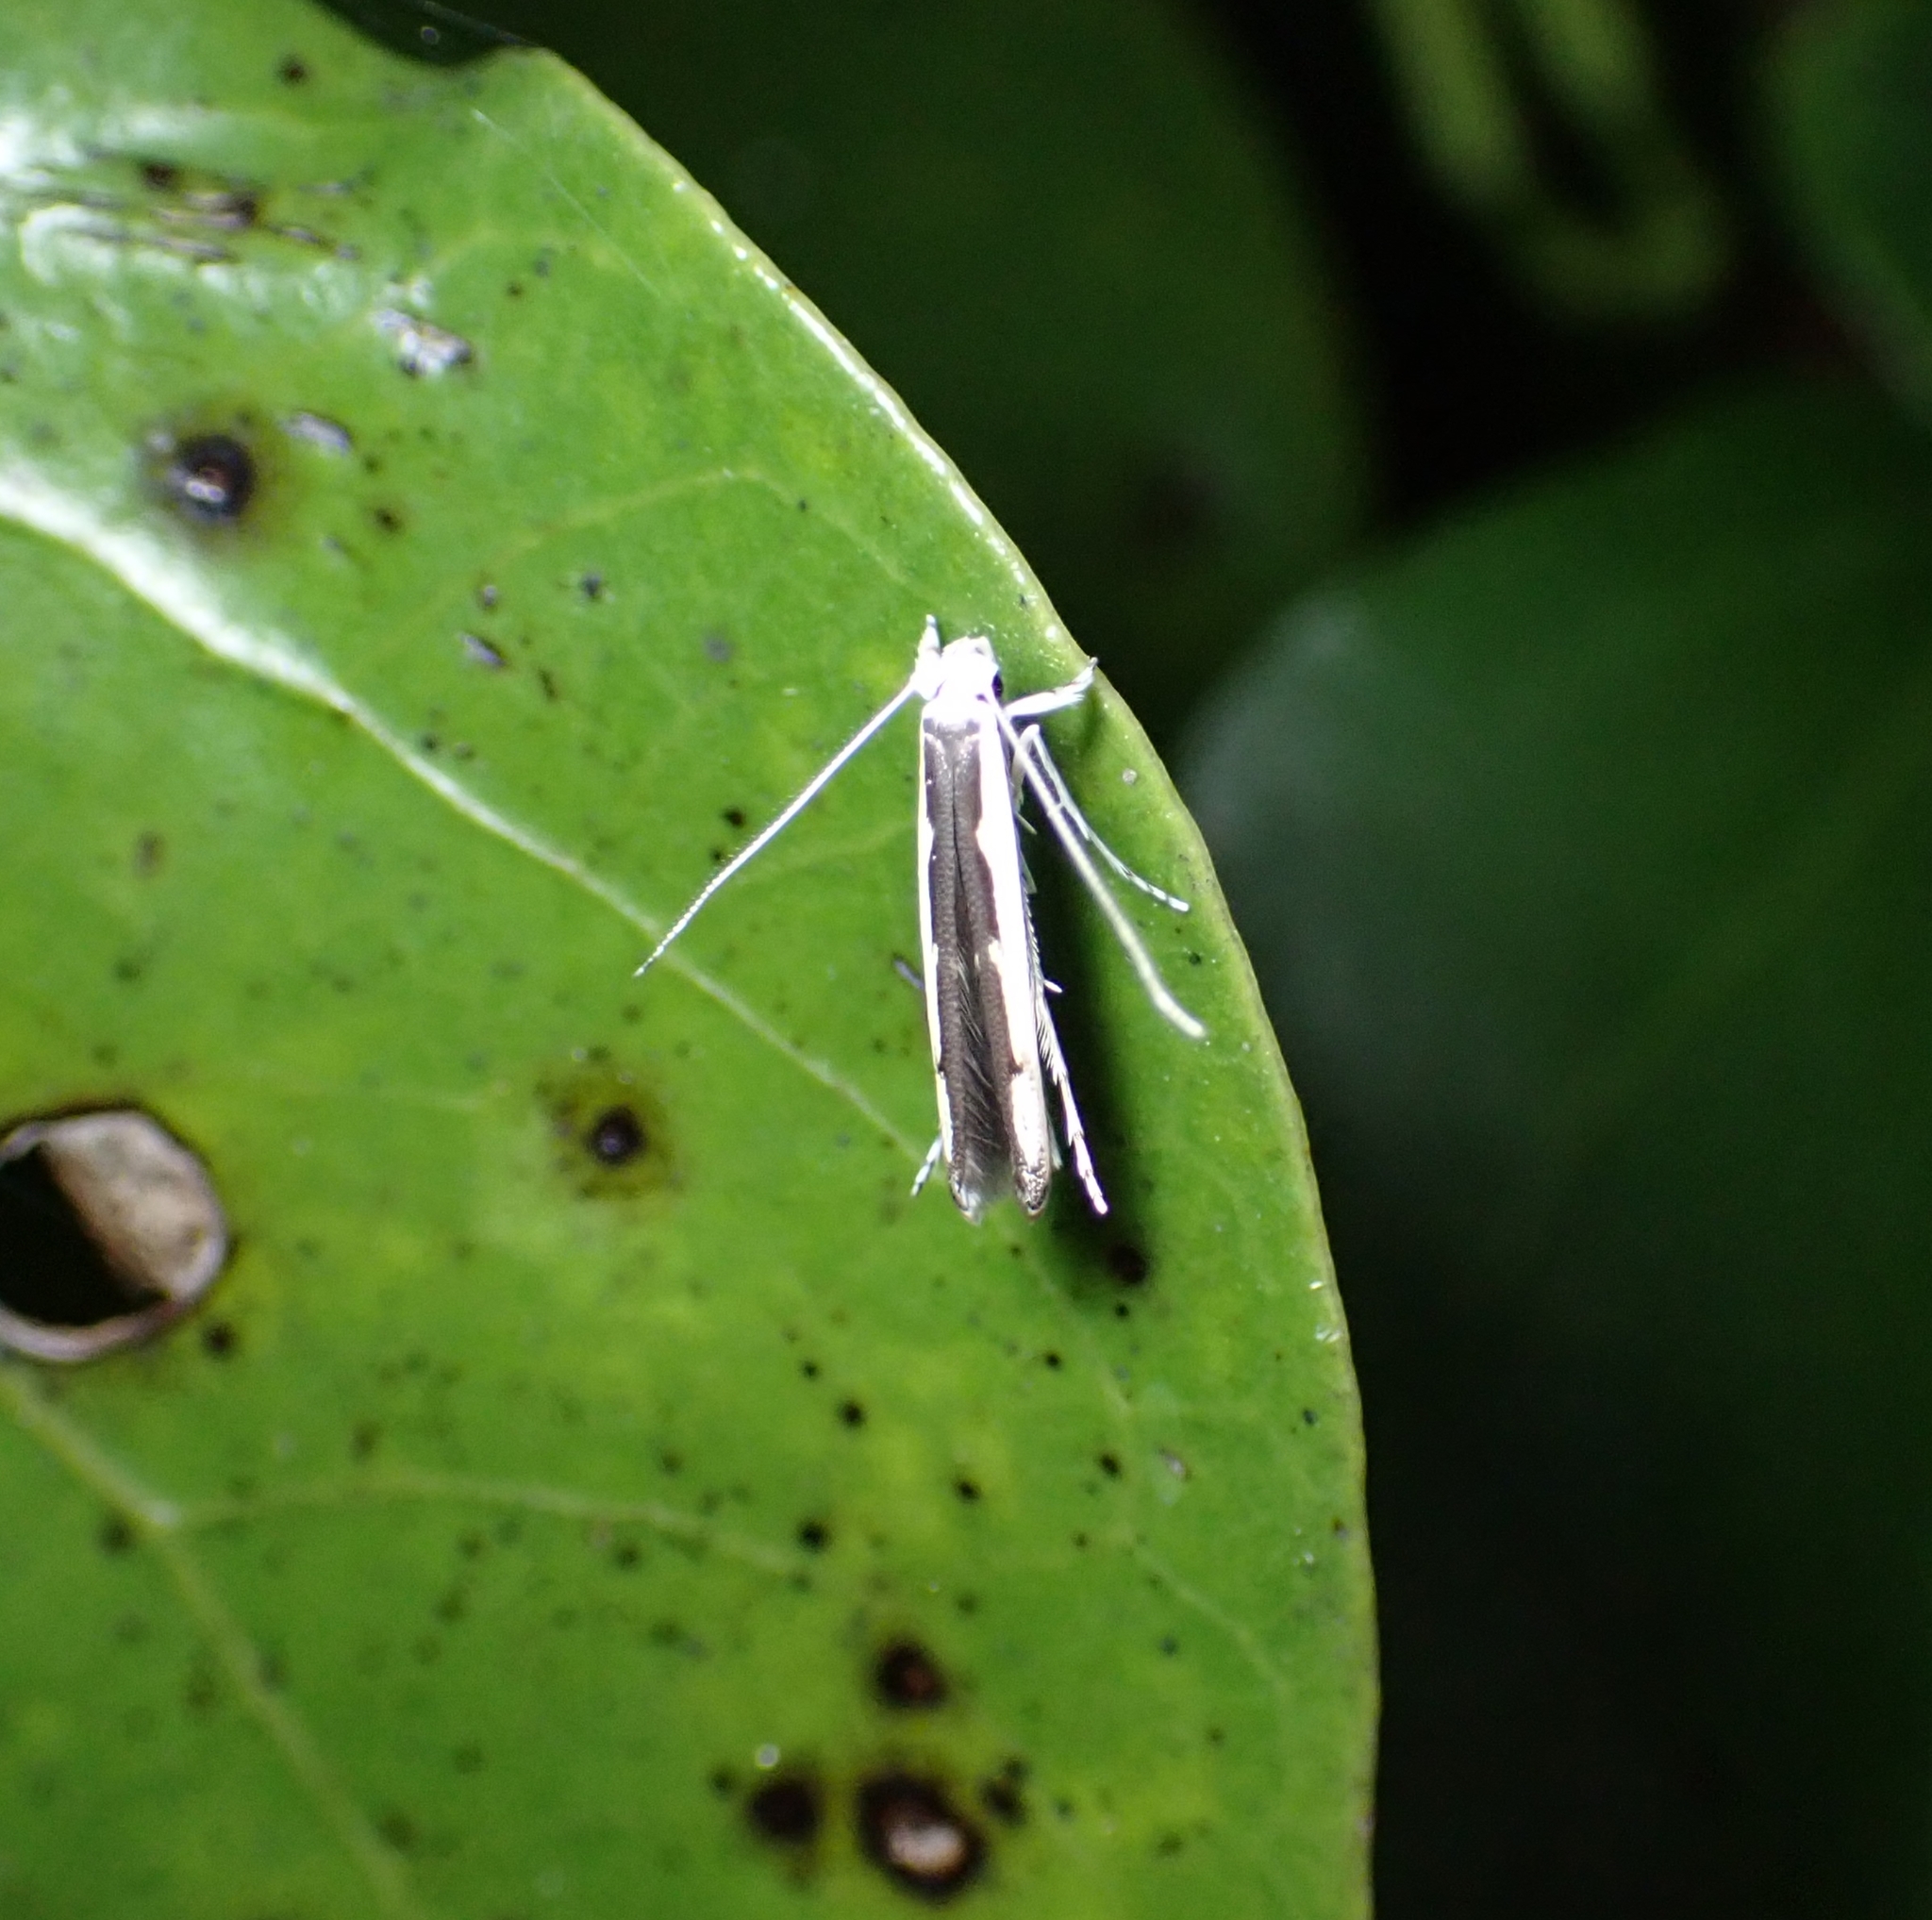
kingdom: Animalia
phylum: Arthropoda
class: Insecta
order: Lepidoptera
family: Roeslerstammiidae
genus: Vanicela
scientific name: Vanicela disjunctella
